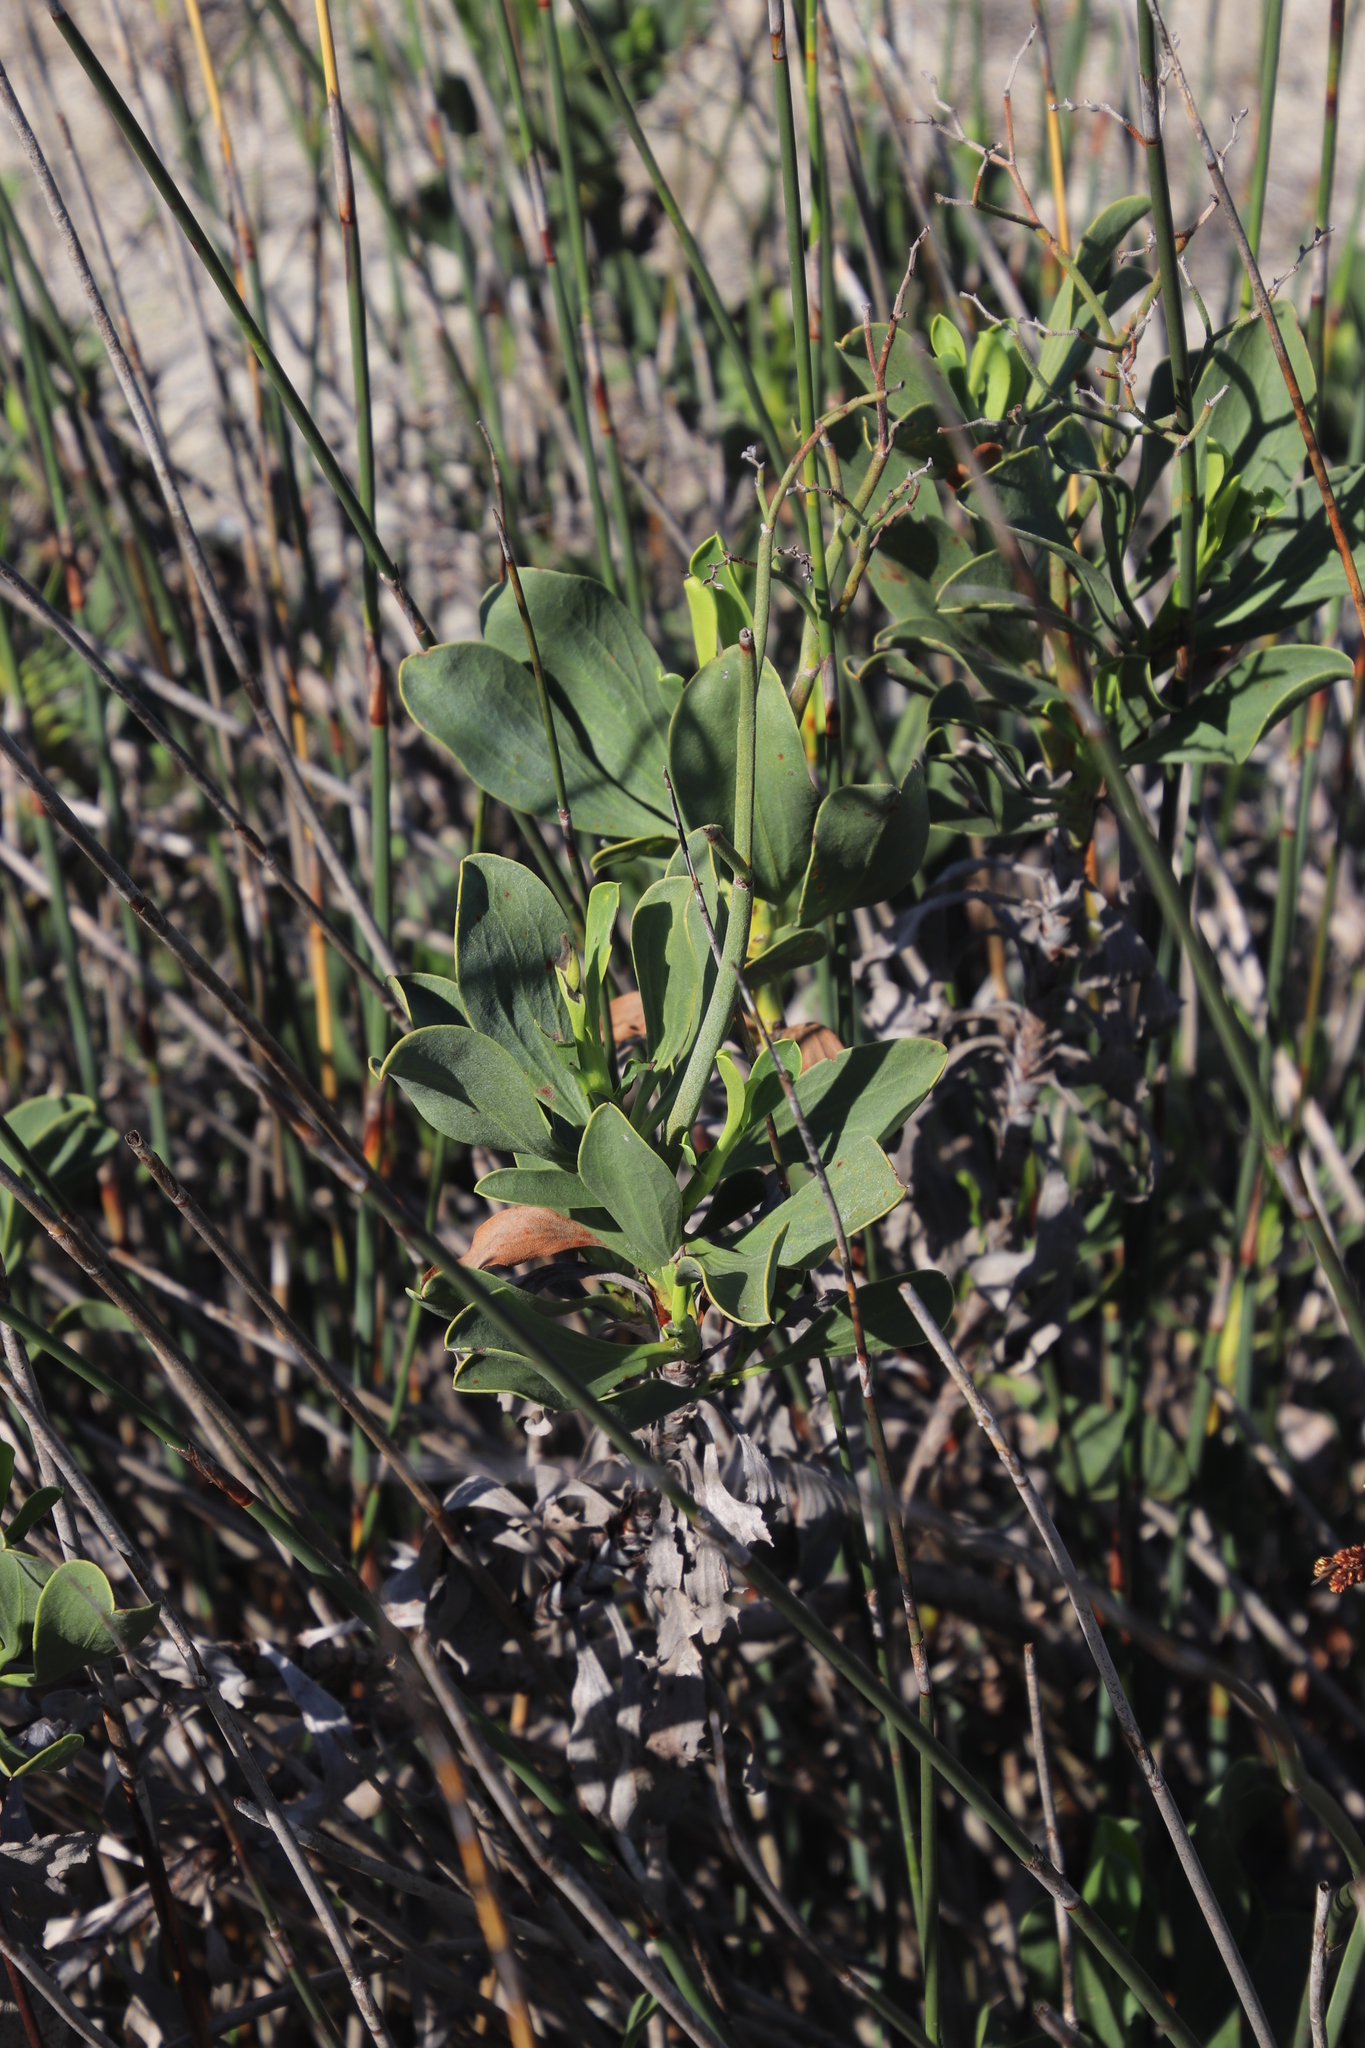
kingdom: Plantae
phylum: Tracheophyta
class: Magnoliopsida
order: Caryophyllales
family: Plumbaginaceae
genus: Limonium
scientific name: Limonium peregrinum
